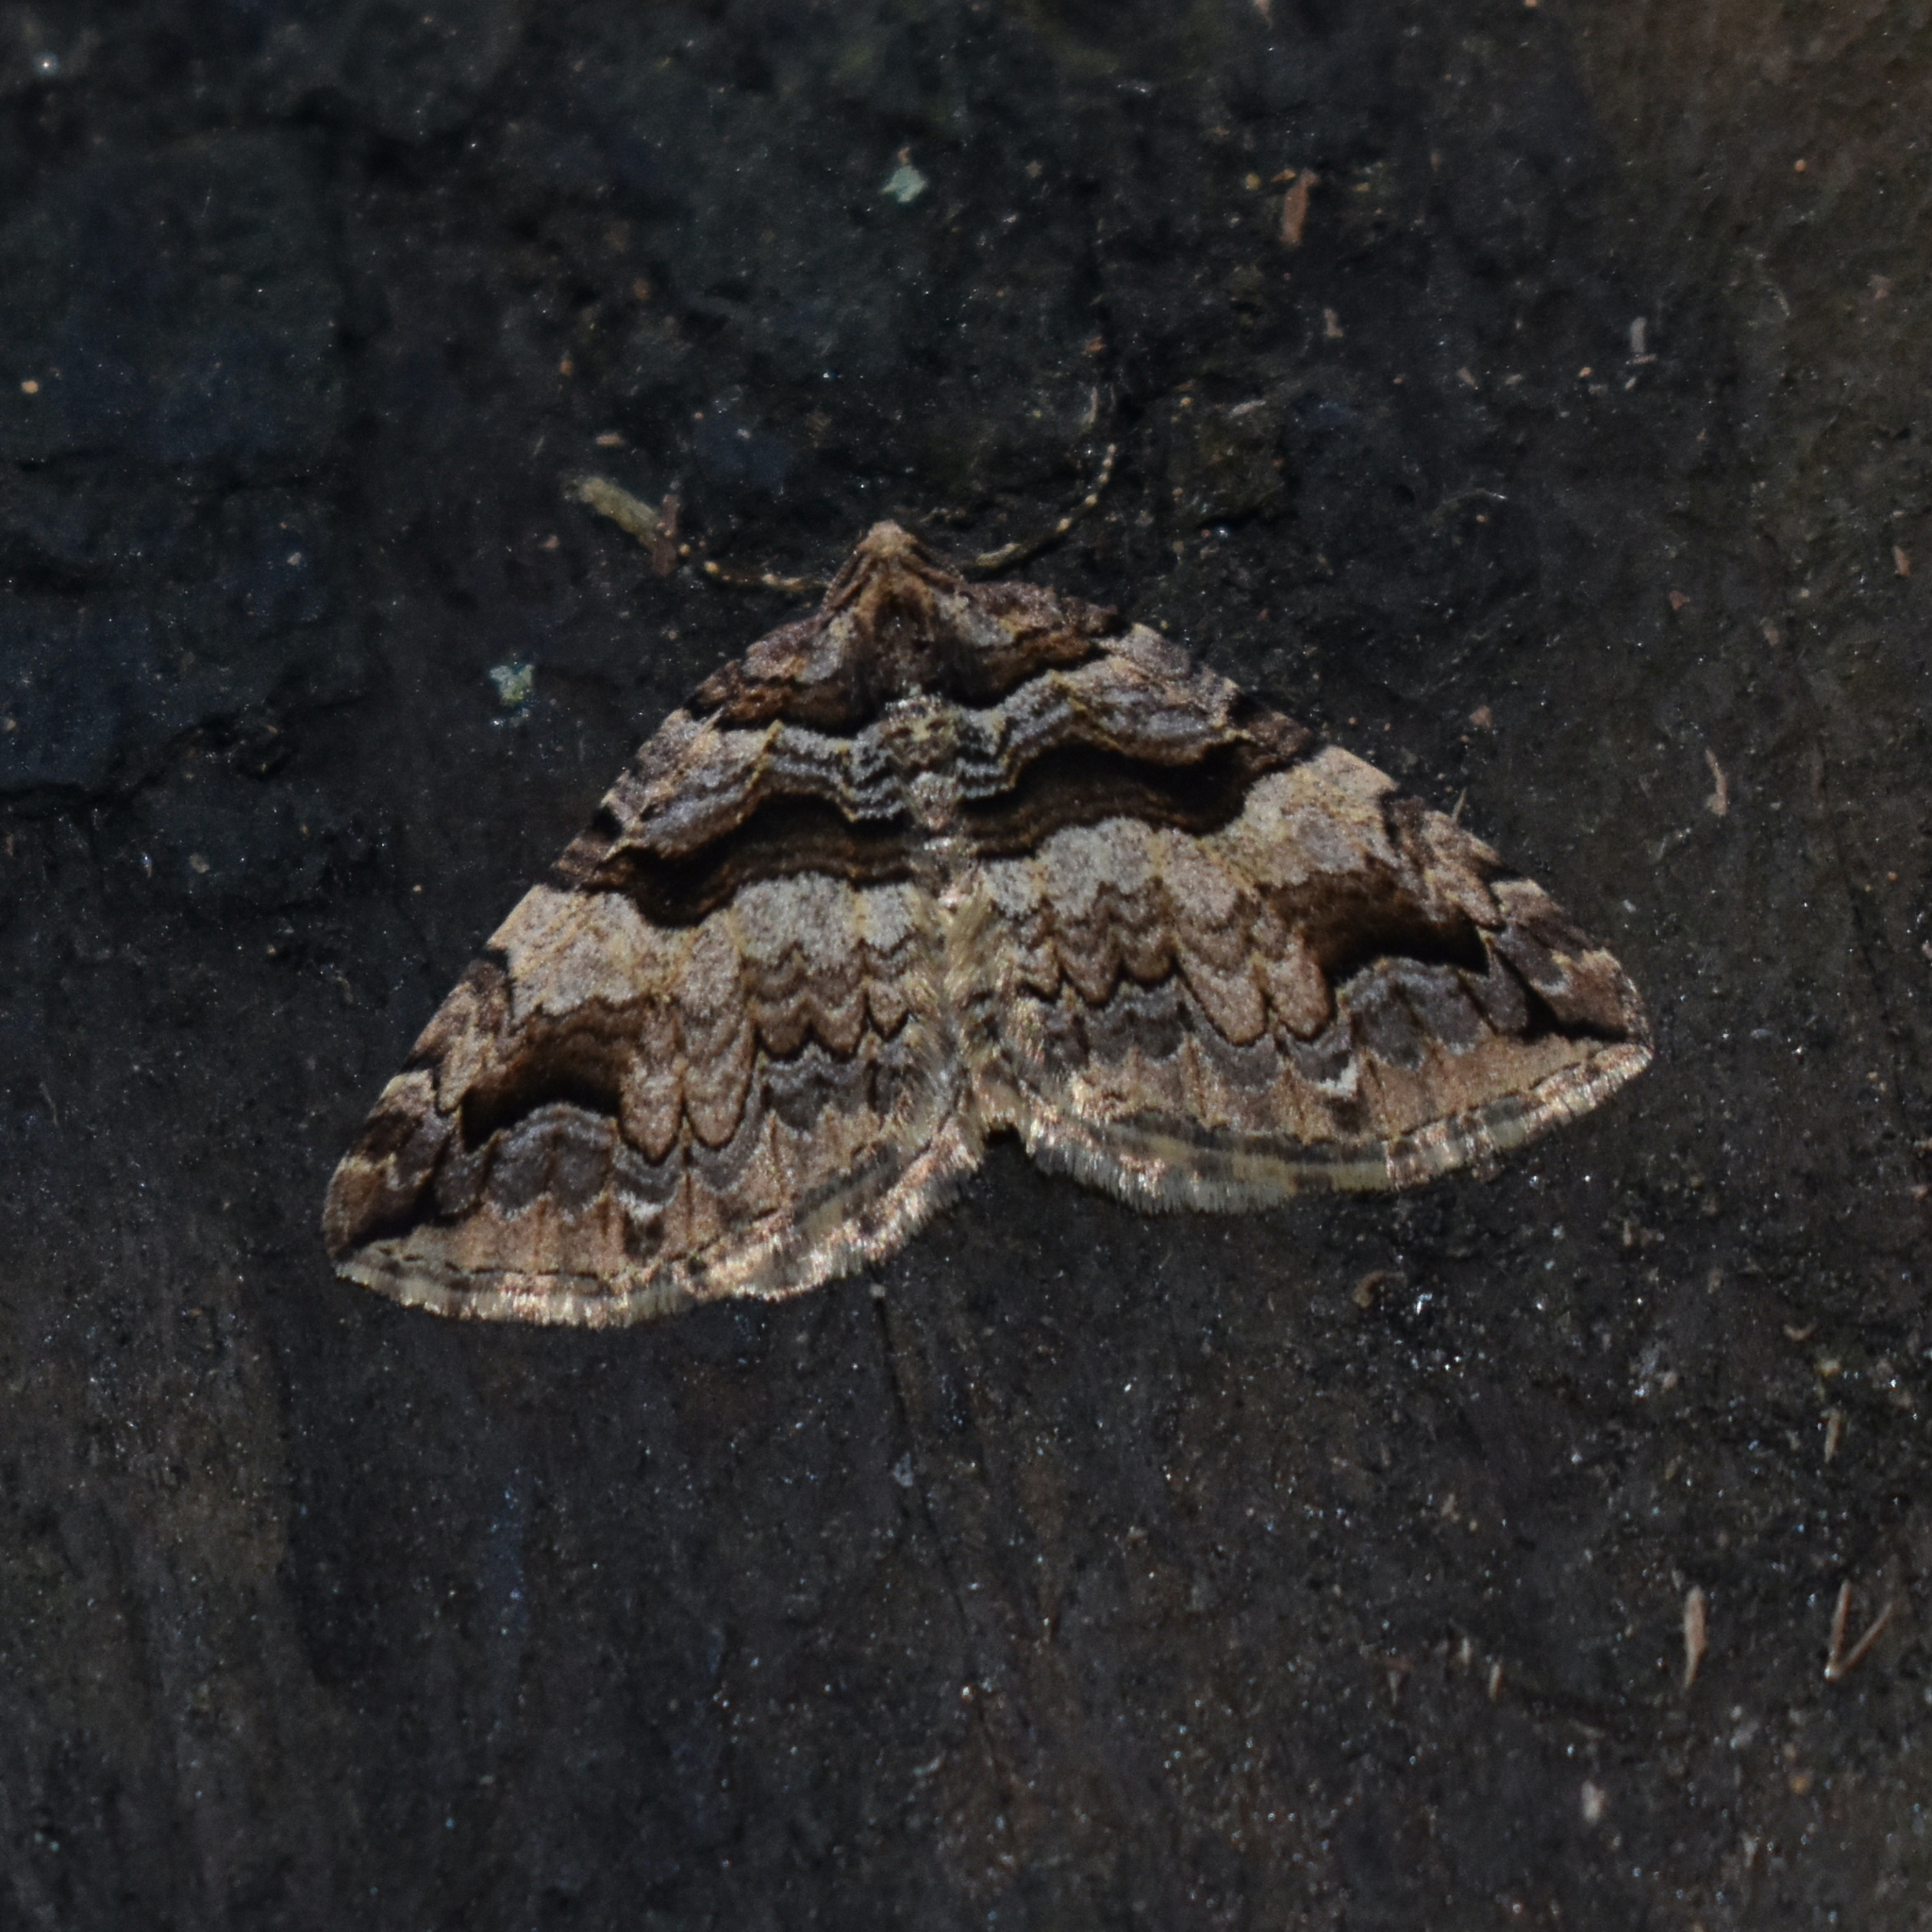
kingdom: Animalia
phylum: Arthropoda
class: Insecta
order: Lepidoptera
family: Geometridae
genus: Anticlea
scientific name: Anticlea vasiliata
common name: Variable carpet
